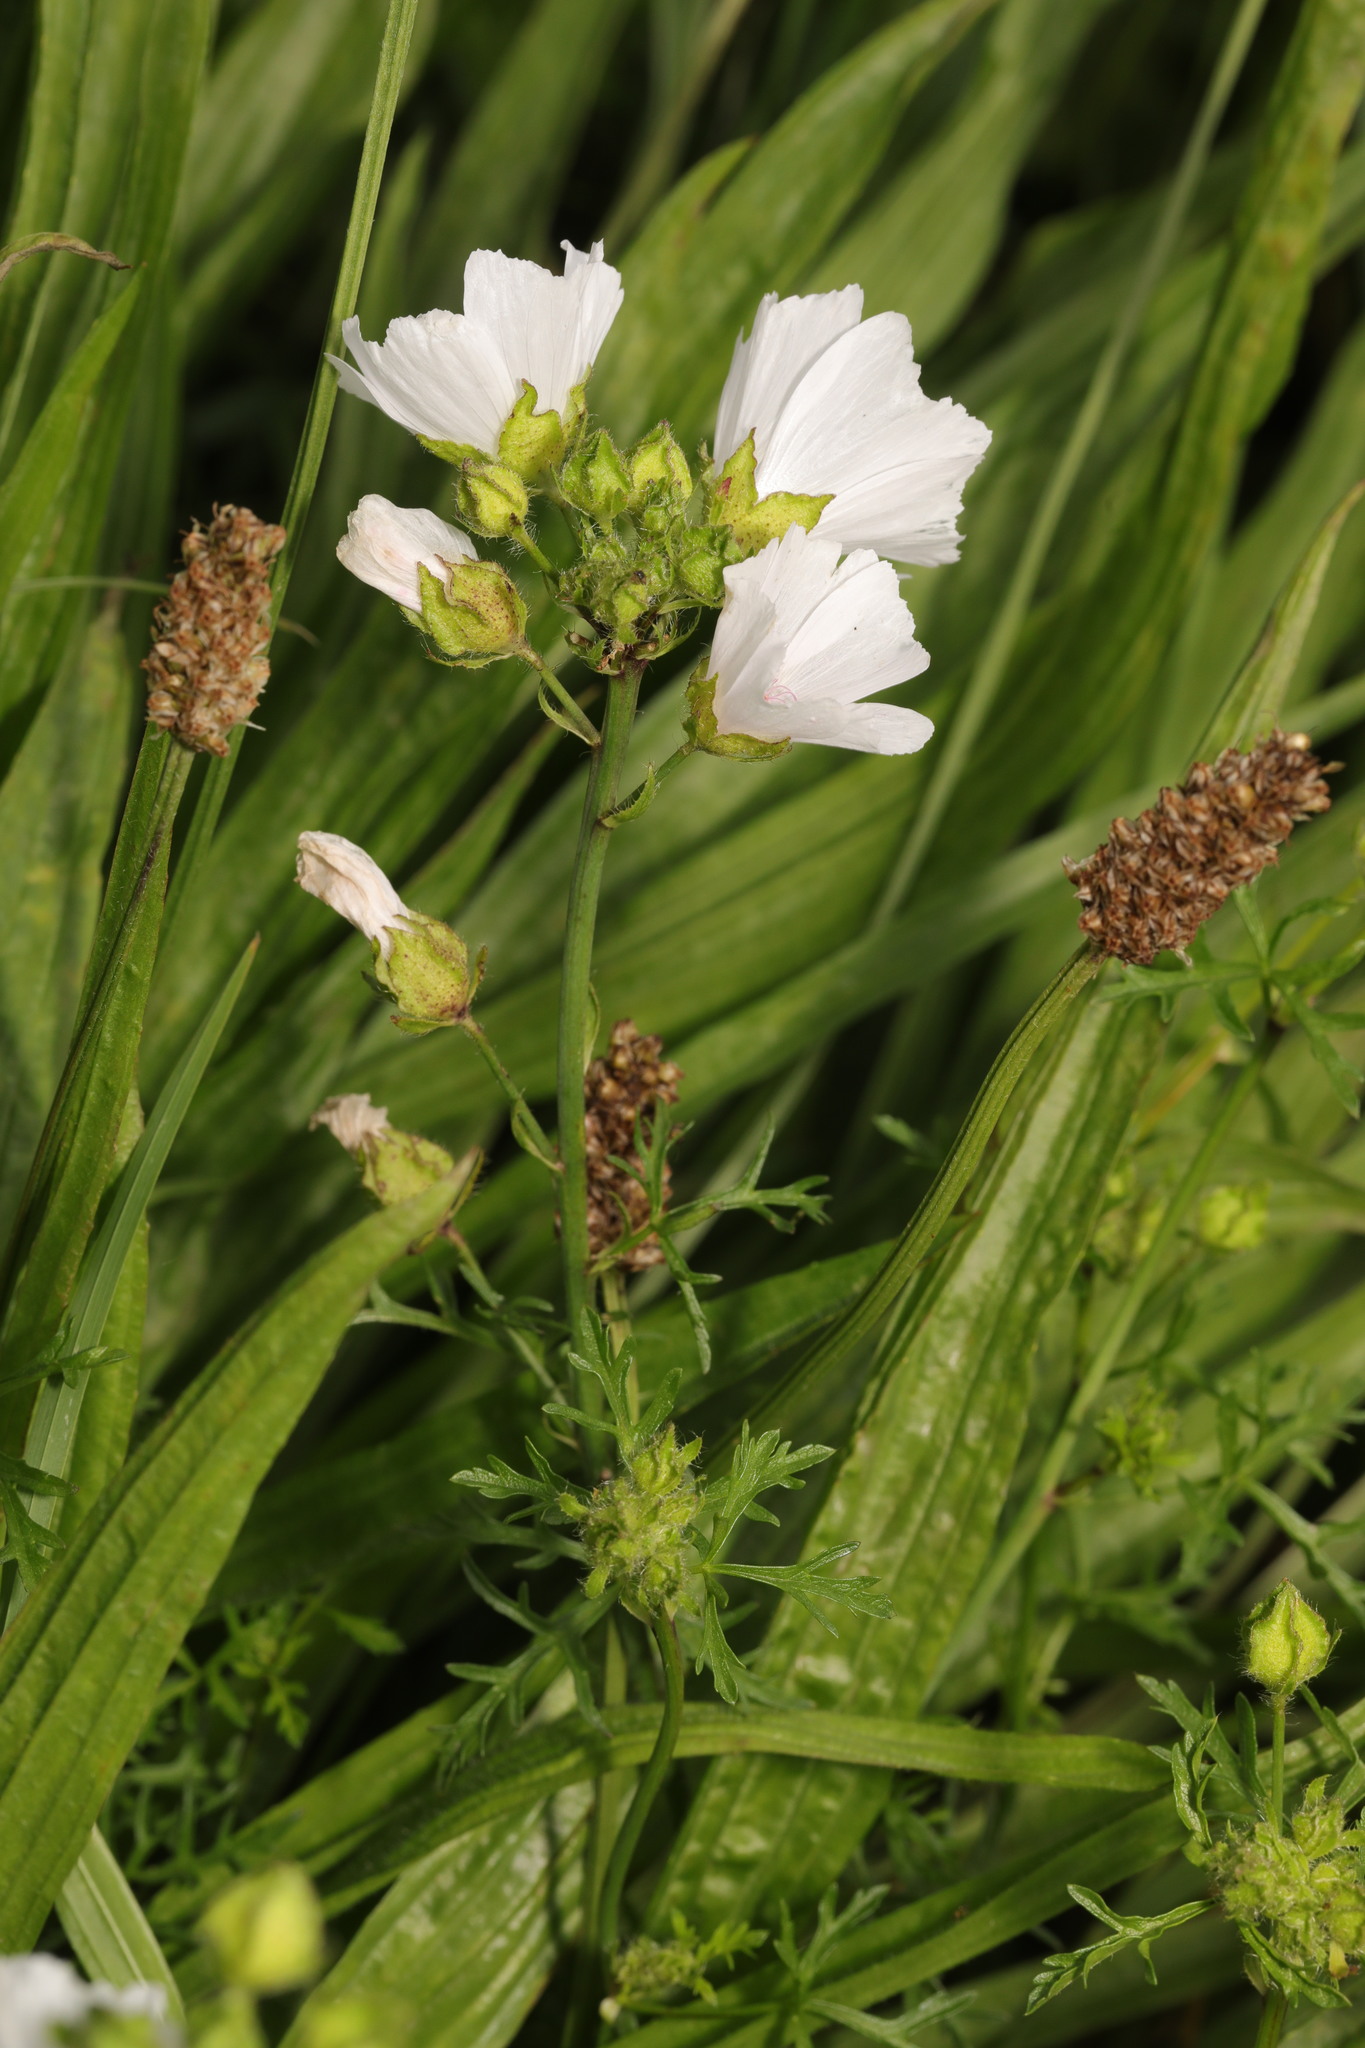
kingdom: Plantae
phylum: Tracheophyta
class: Magnoliopsida
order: Malvales
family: Malvaceae
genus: Malva
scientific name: Malva moschata
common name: Musk mallow
